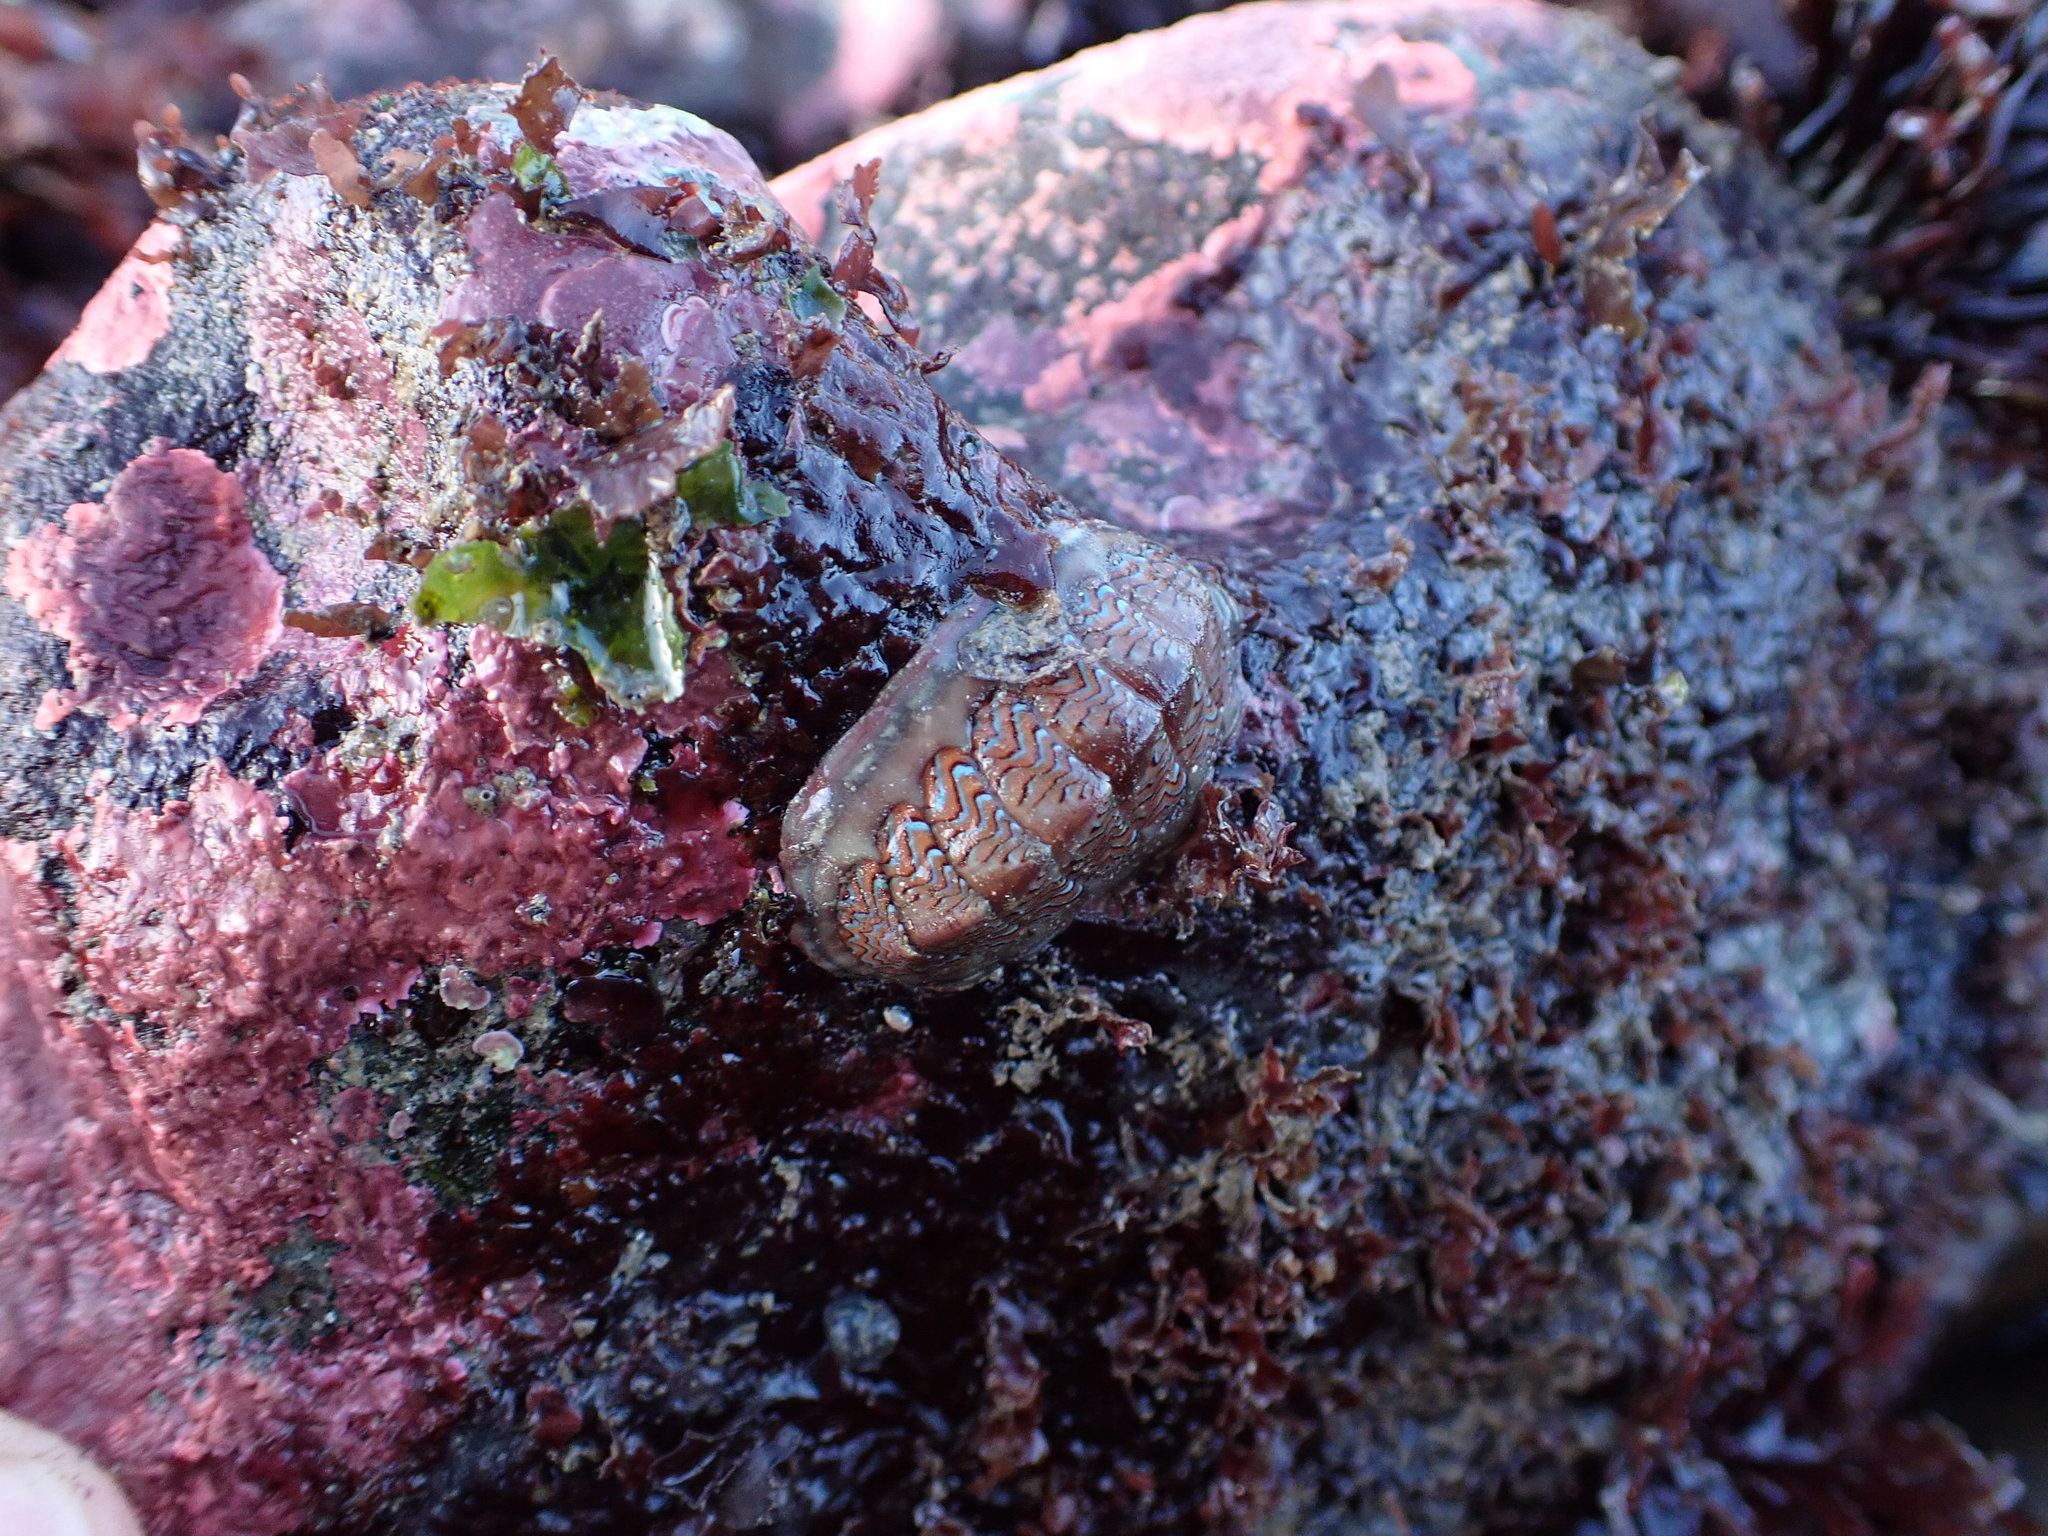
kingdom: Animalia
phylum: Mollusca
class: Polyplacophora
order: Chitonida
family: Tonicellidae
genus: Tonicella
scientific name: Tonicella lokii
